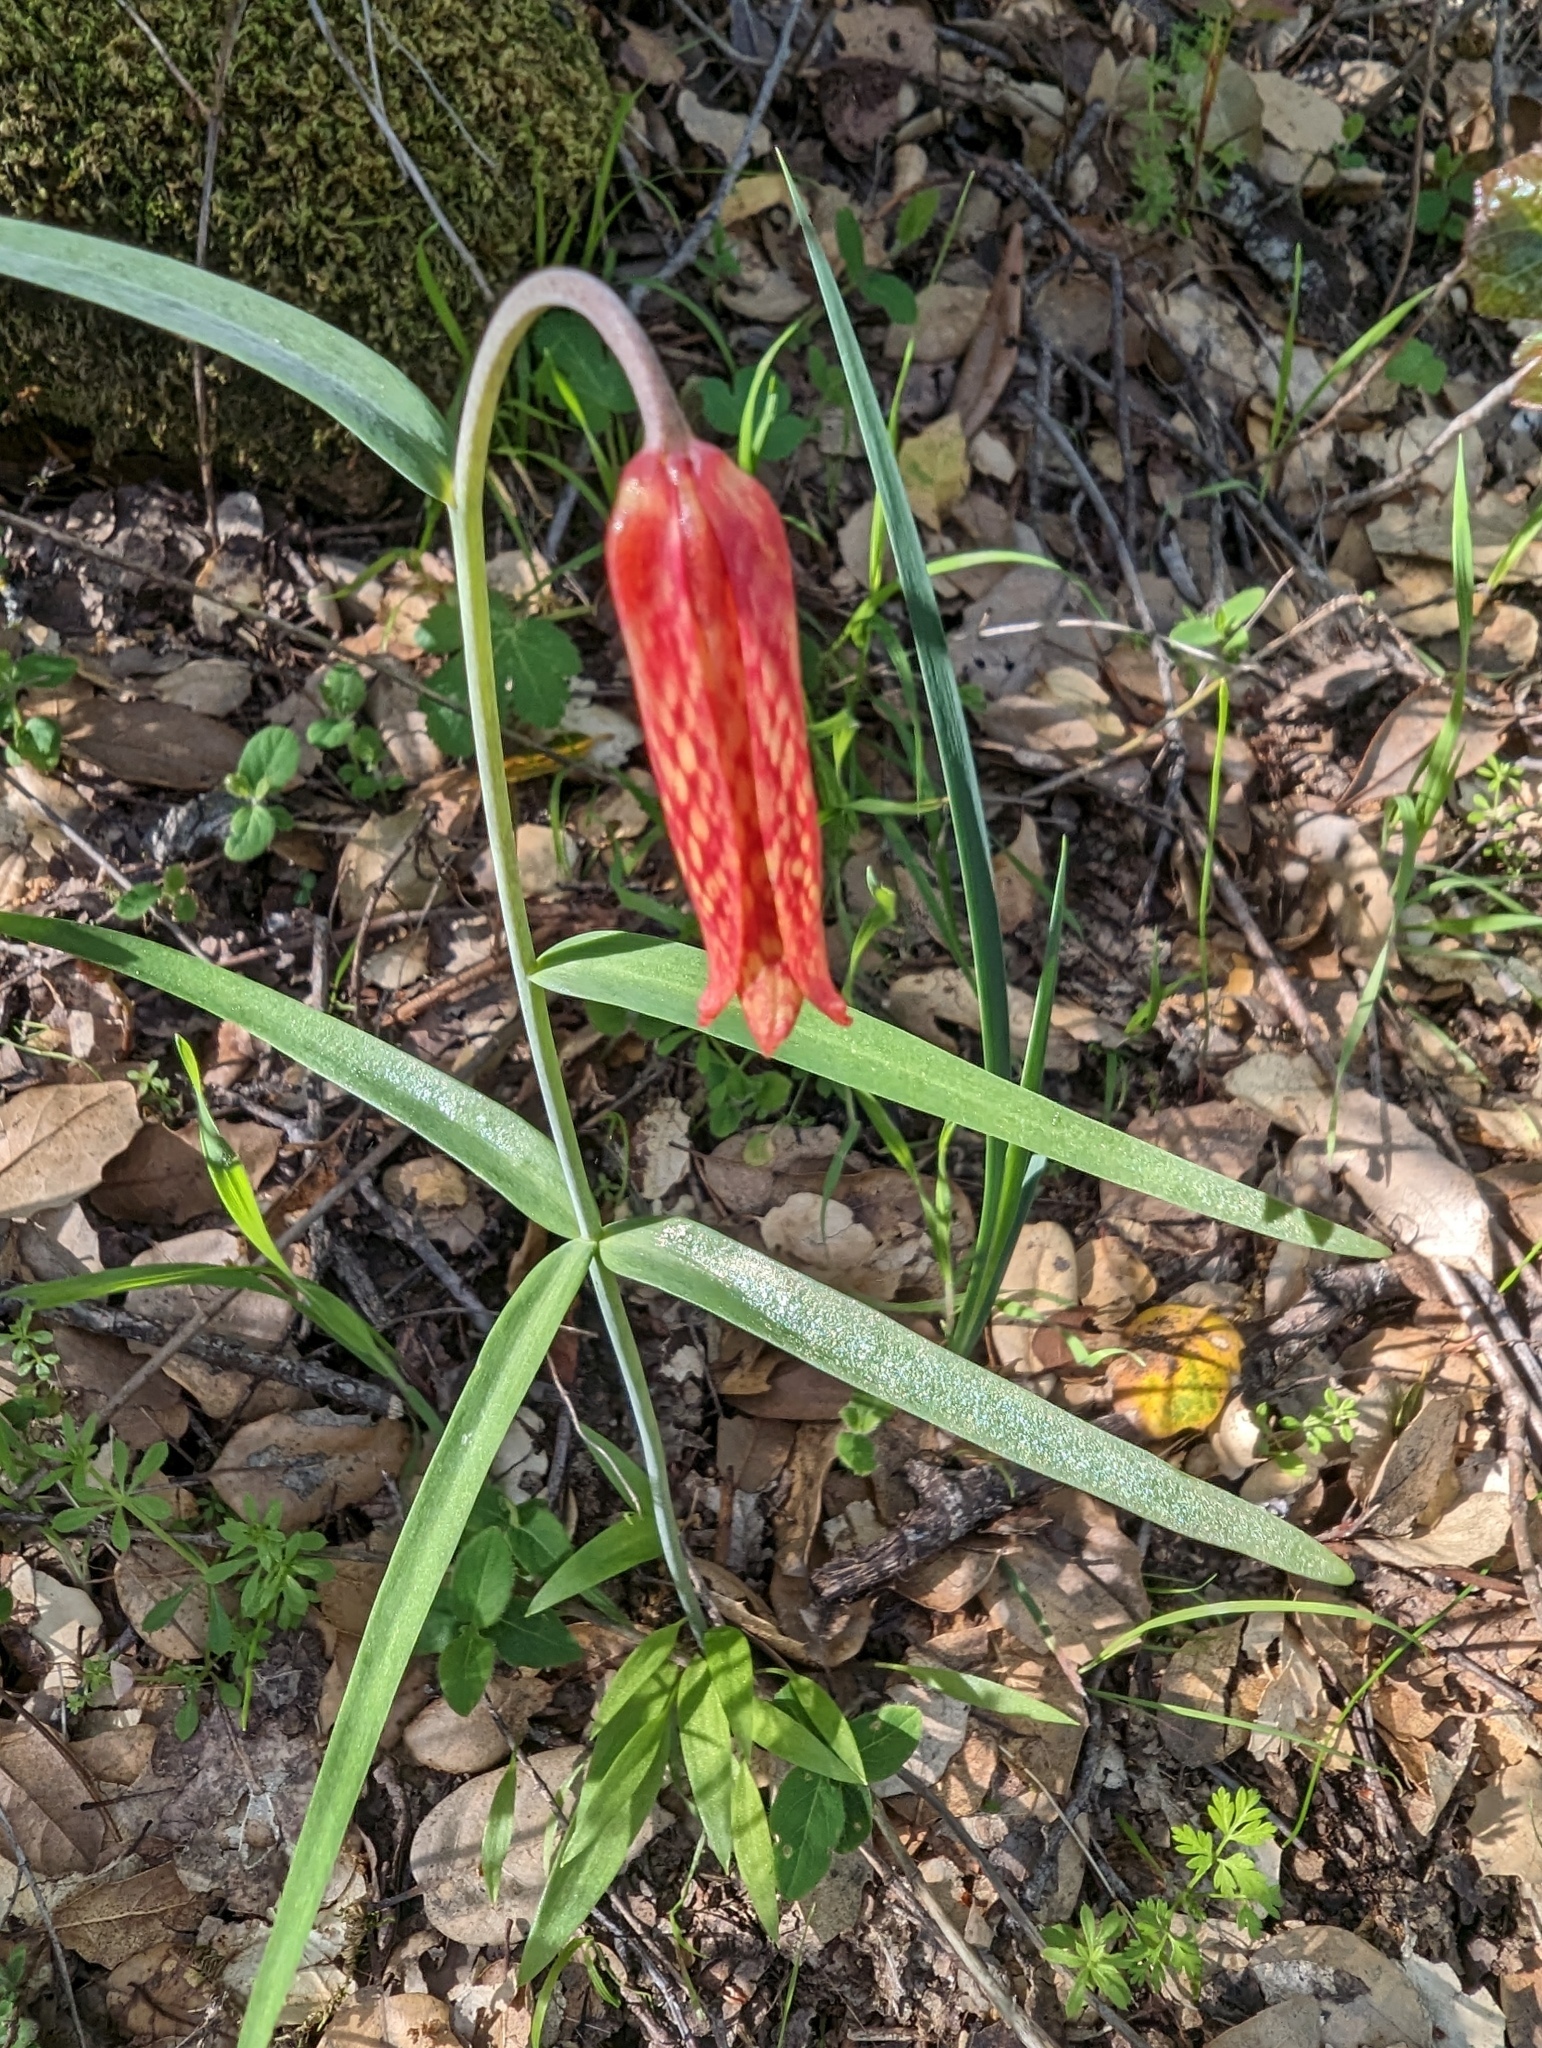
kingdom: Plantae
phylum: Tracheophyta
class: Liliopsida
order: Liliales
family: Liliaceae
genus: Fritillaria
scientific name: Fritillaria recurva
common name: Scarlet fritillary
